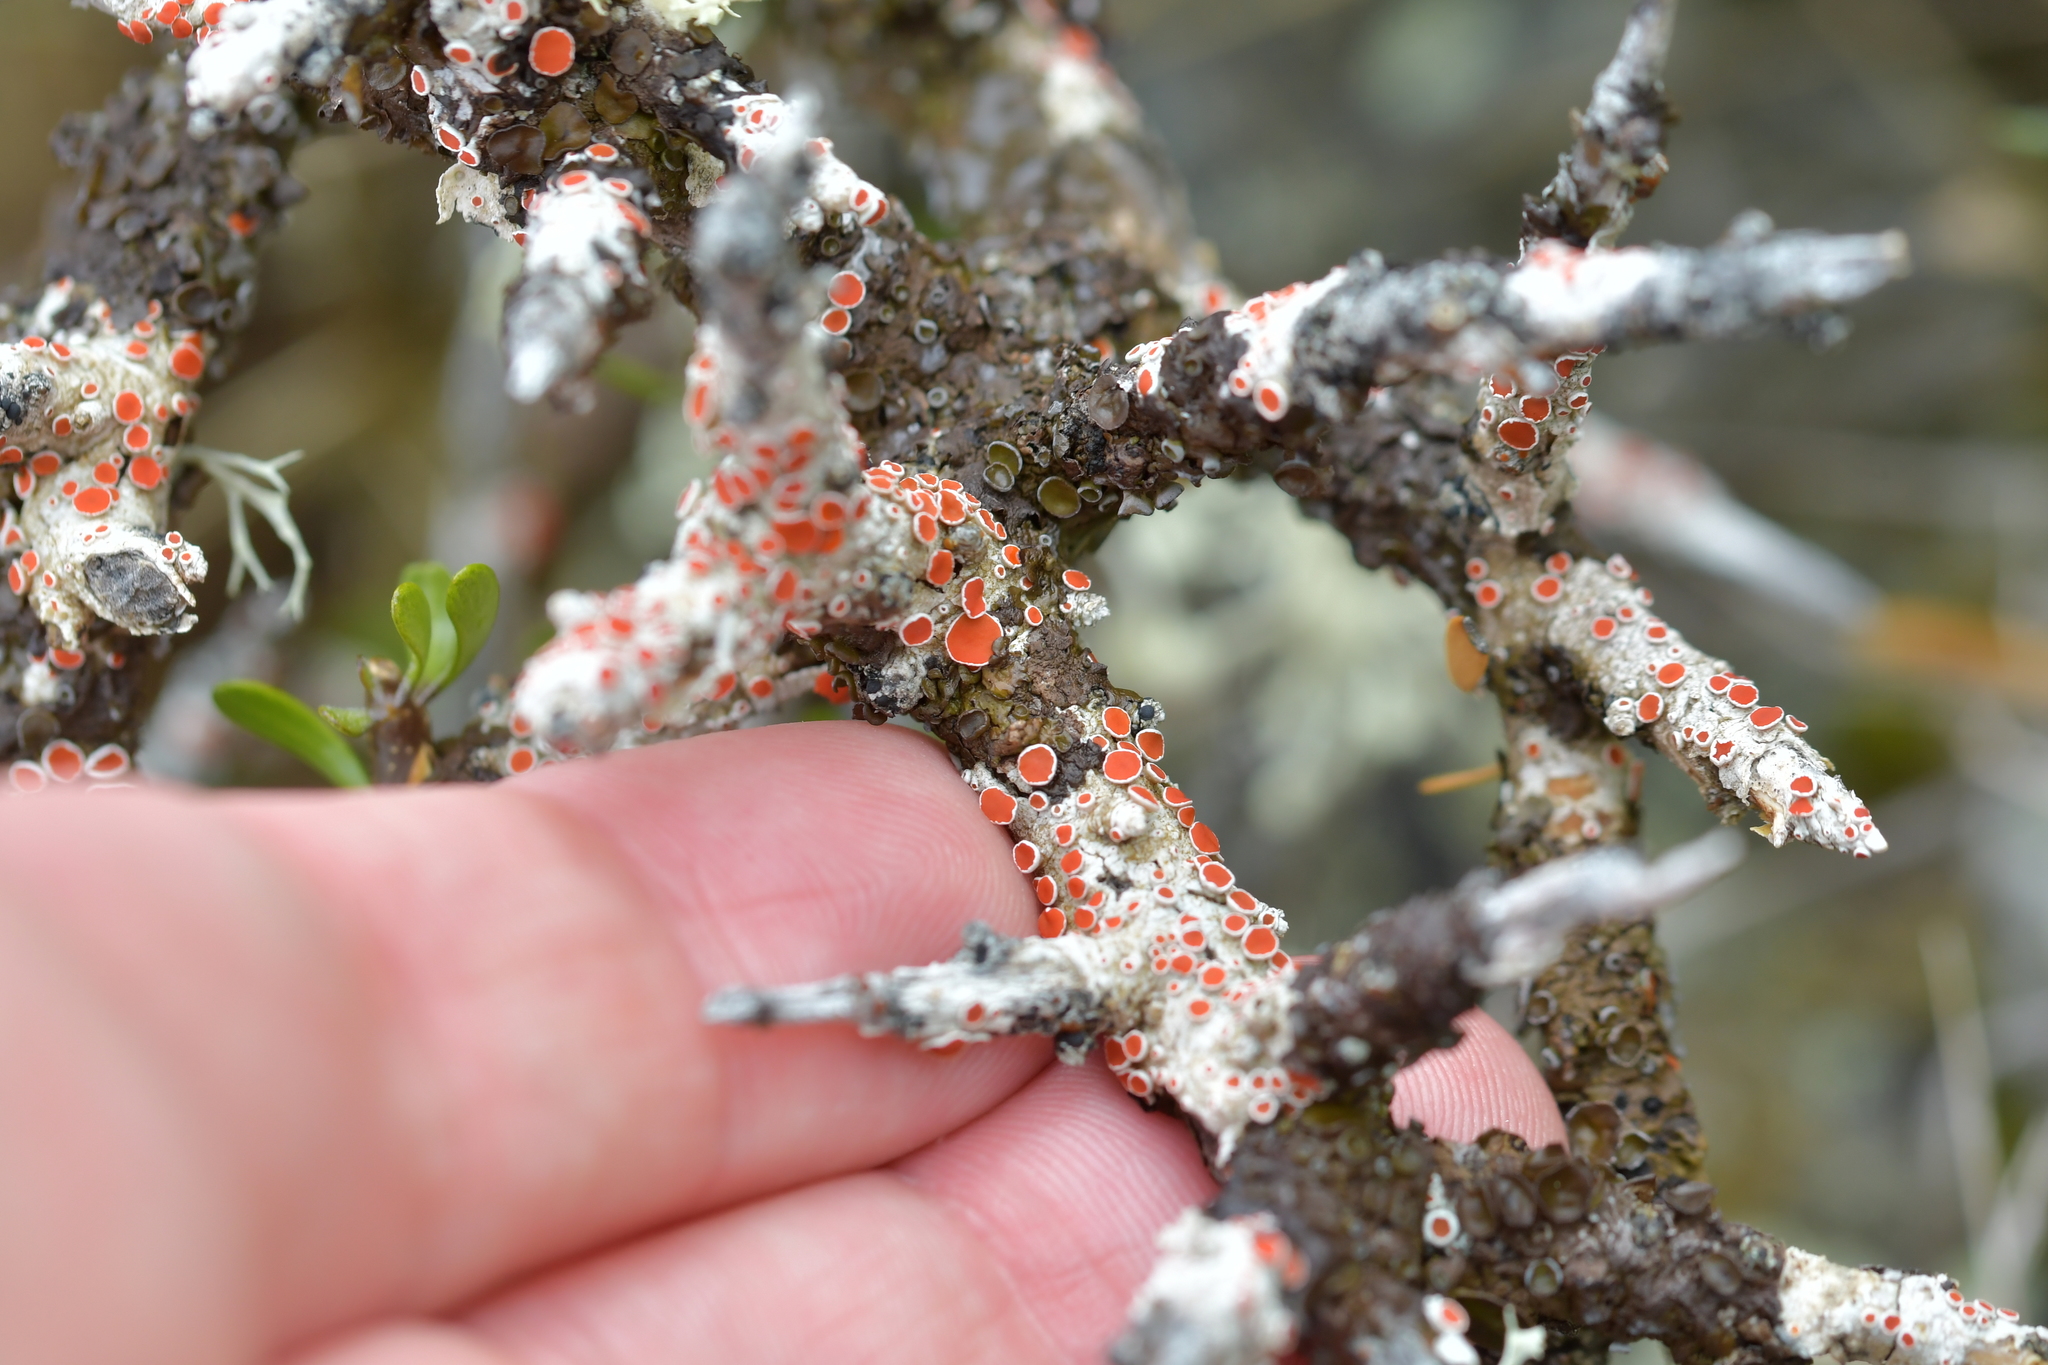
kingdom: Fungi
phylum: Ascomycota
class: Lecanoromycetes
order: Lecanorales
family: Haematommataceae
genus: Haematomma
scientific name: Haematomma
